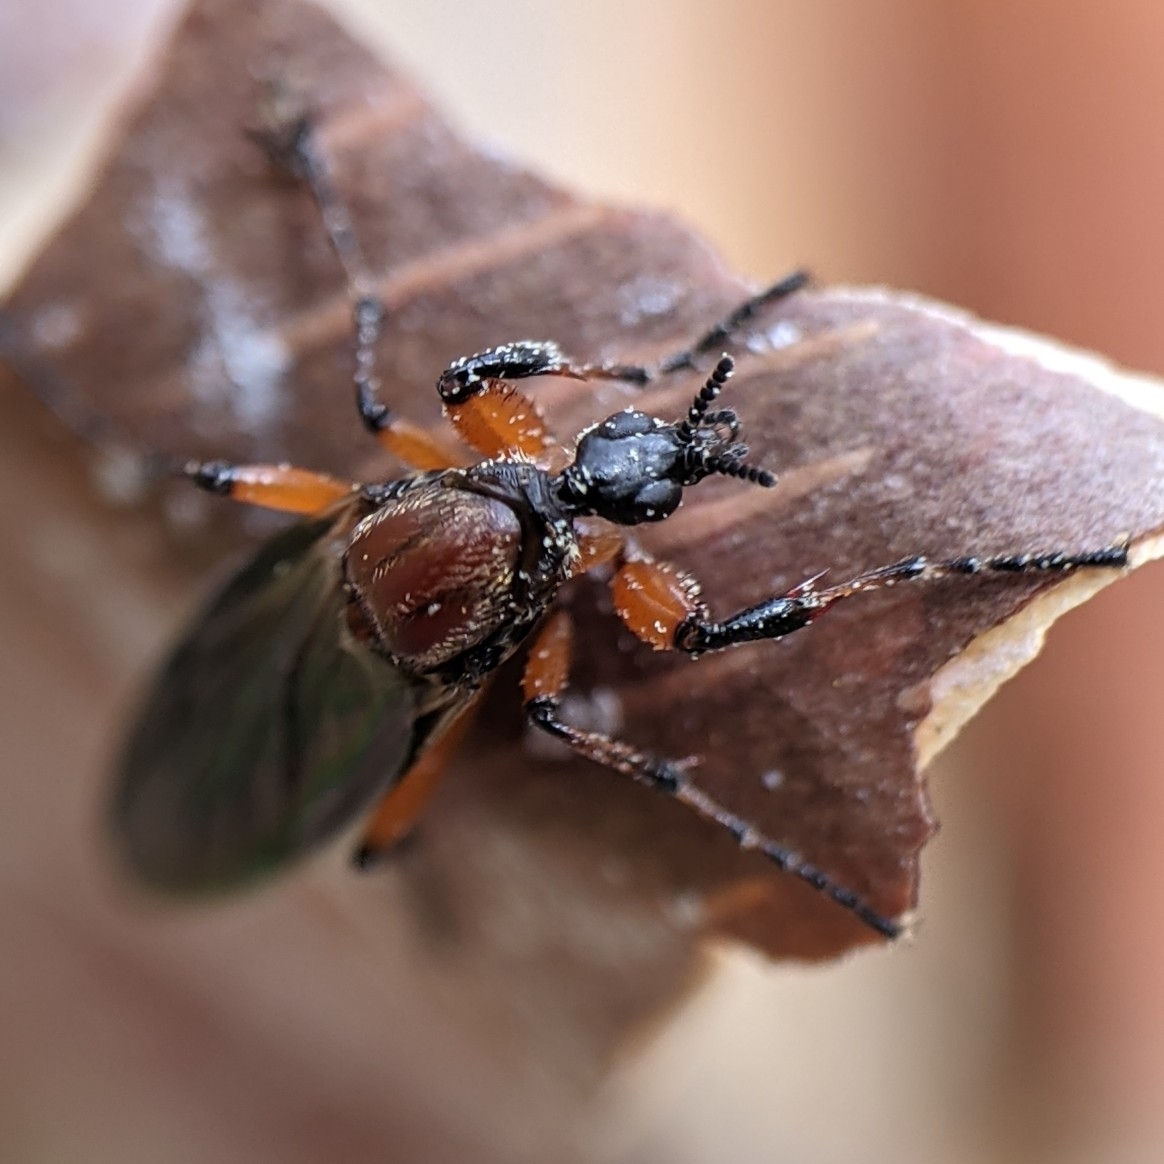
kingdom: Animalia
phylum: Arthropoda
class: Insecta
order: Diptera
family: Bibionidae
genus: Bibio
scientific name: Bibio articulatus
